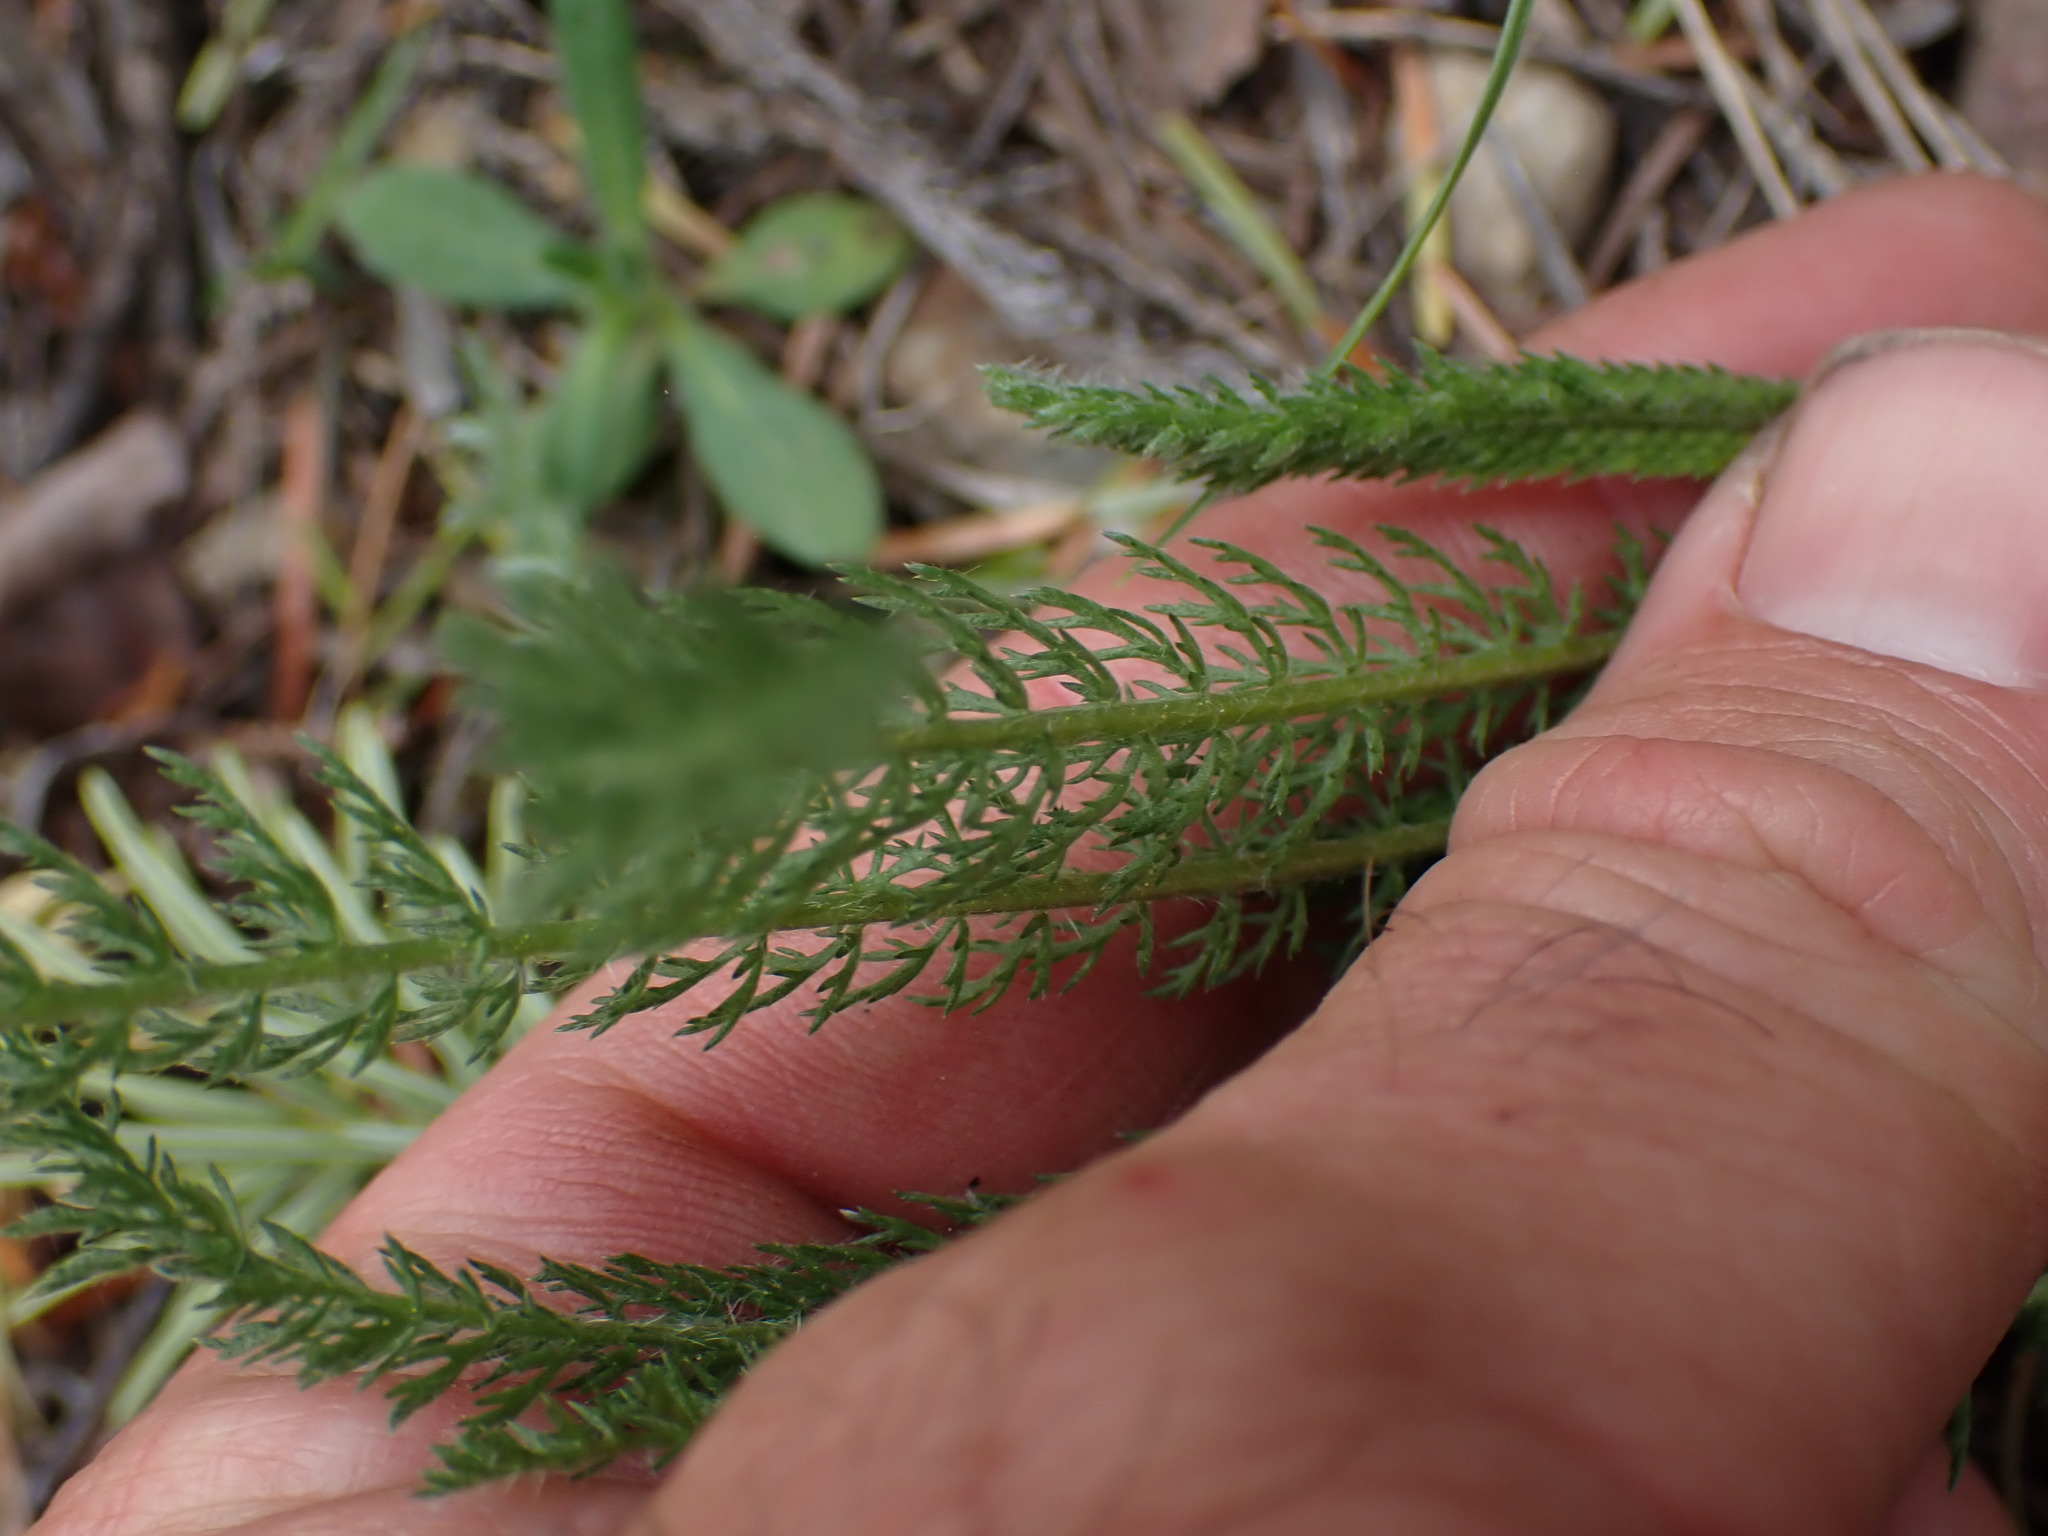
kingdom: Plantae
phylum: Tracheophyta
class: Magnoliopsida
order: Asterales
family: Asteraceae
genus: Achillea
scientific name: Achillea millefolium
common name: Yarrow
